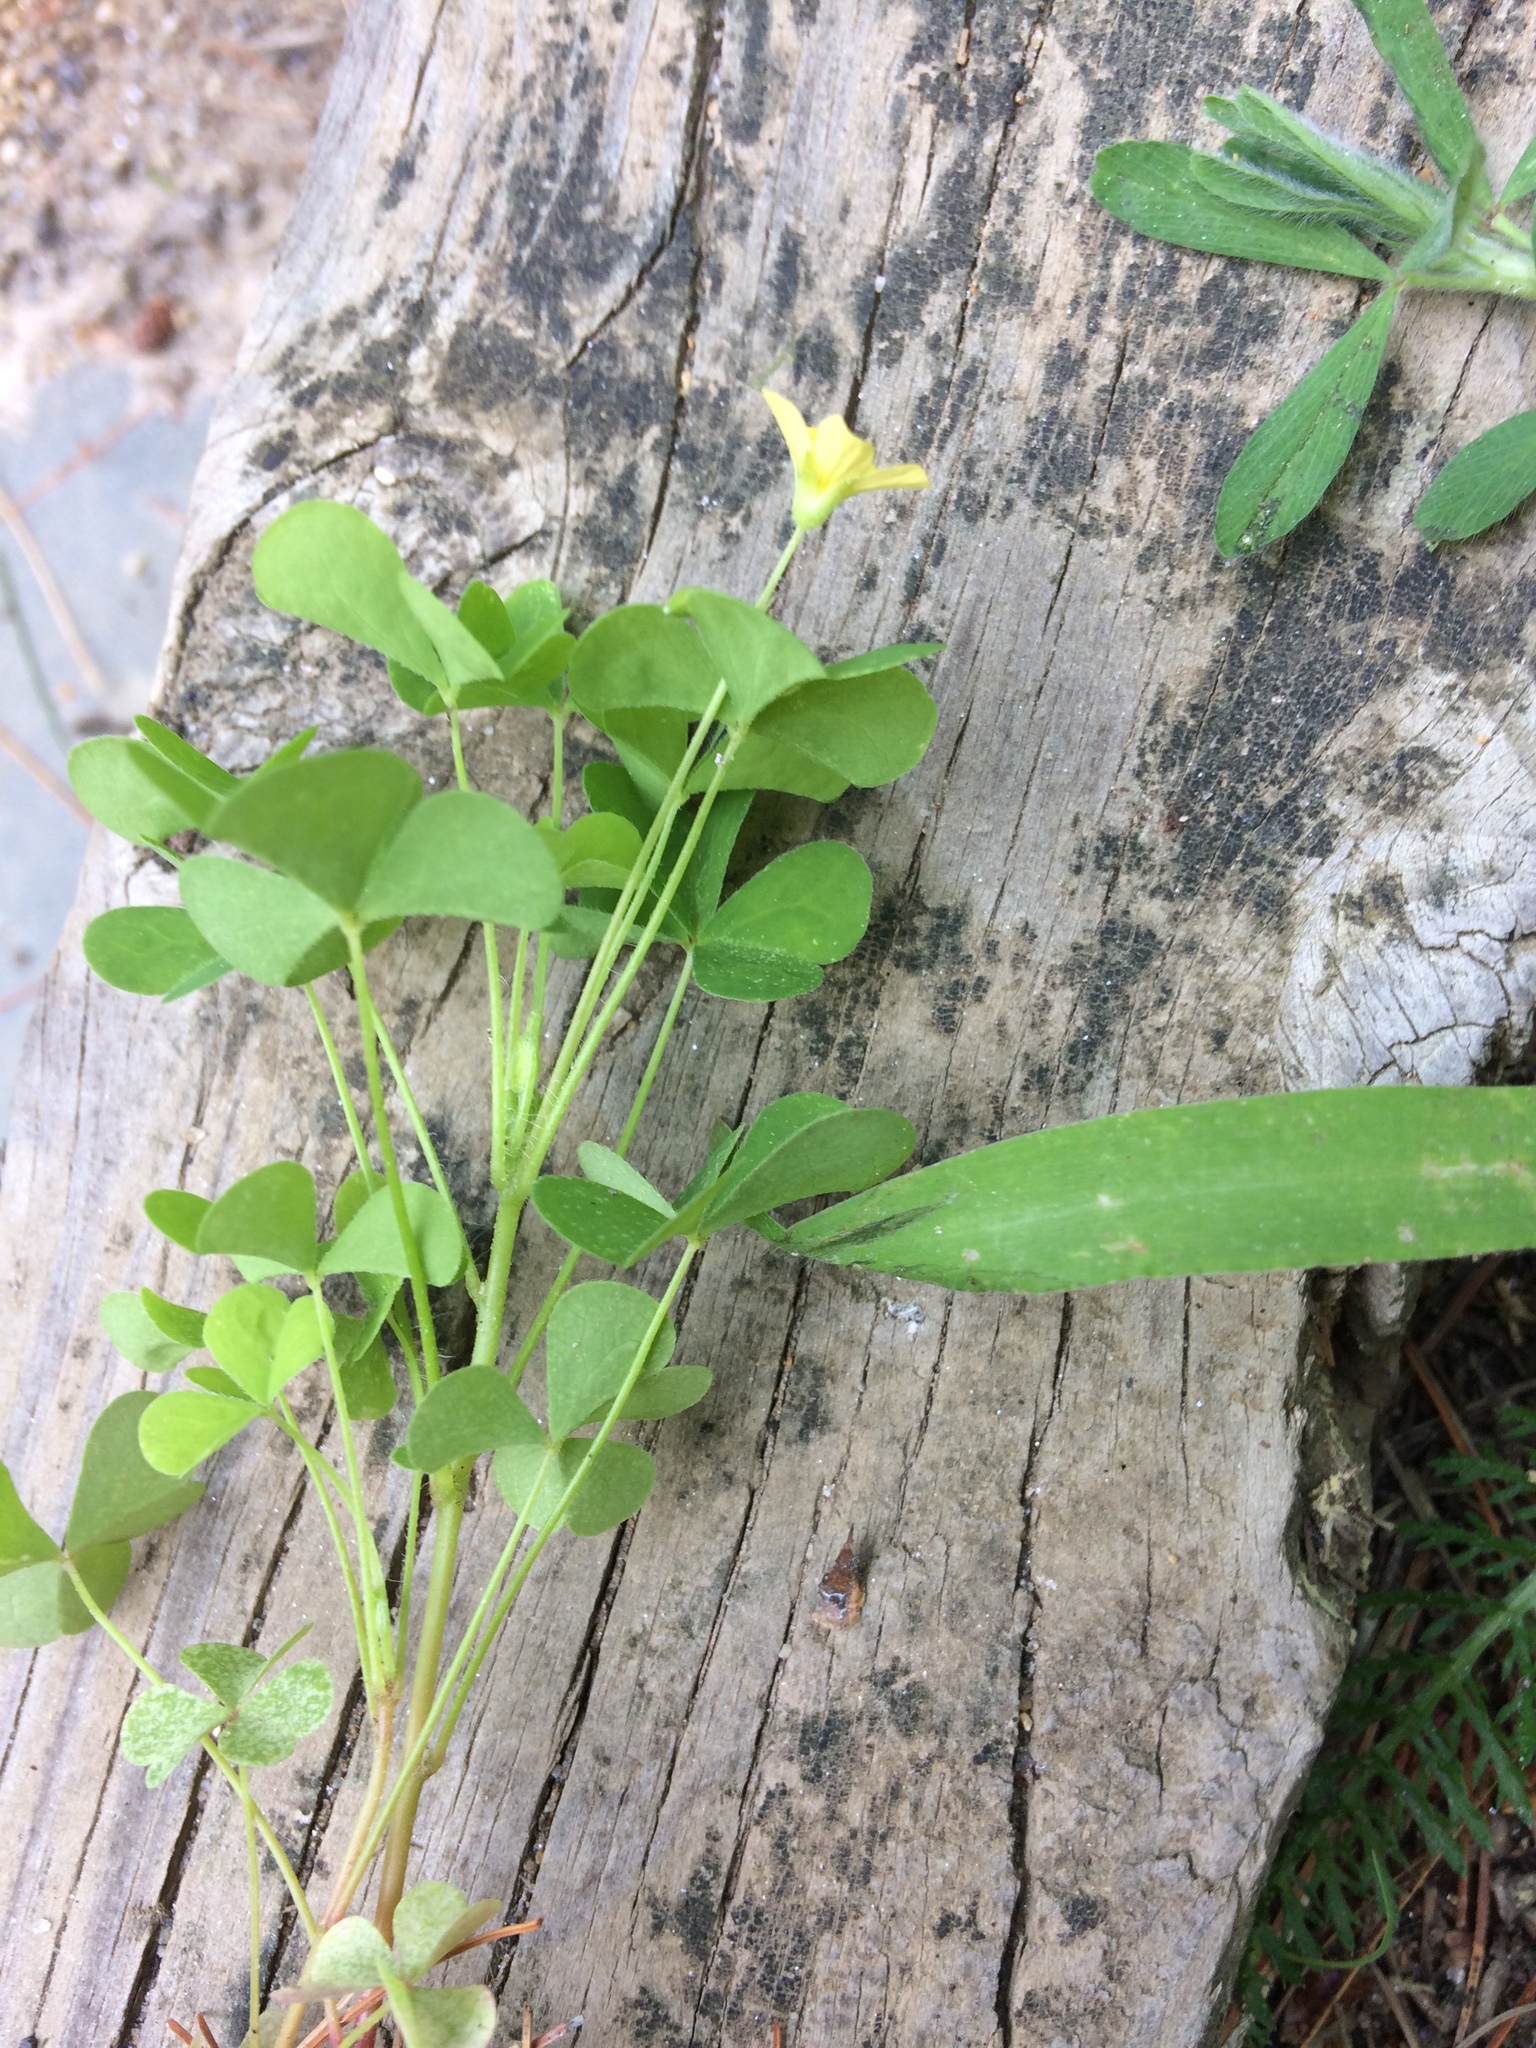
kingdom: Plantae
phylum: Tracheophyta
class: Magnoliopsida
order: Oxalidales
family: Oxalidaceae
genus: Oxalis
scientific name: Oxalis stricta
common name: Upright yellow-sorrel
